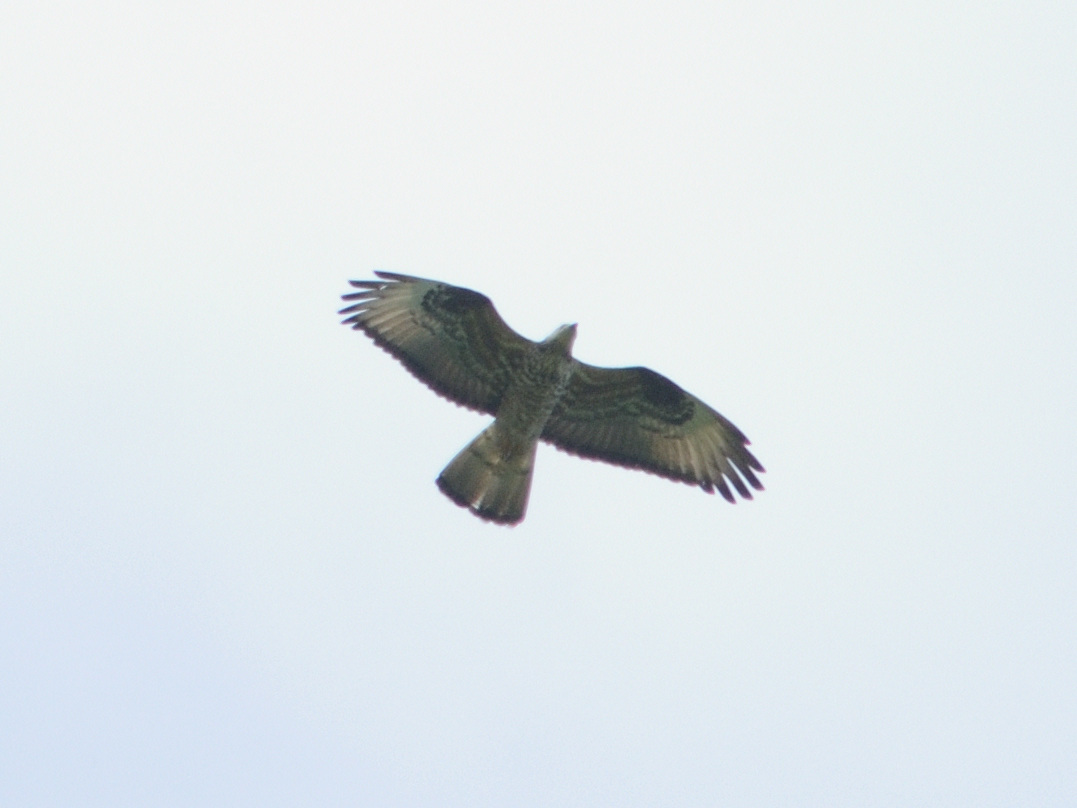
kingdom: Animalia
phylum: Chordata
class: Aves
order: Accipitriformes
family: Accipitridae
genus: Pernis
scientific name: Pernis apivorus
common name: European honey buzzard
